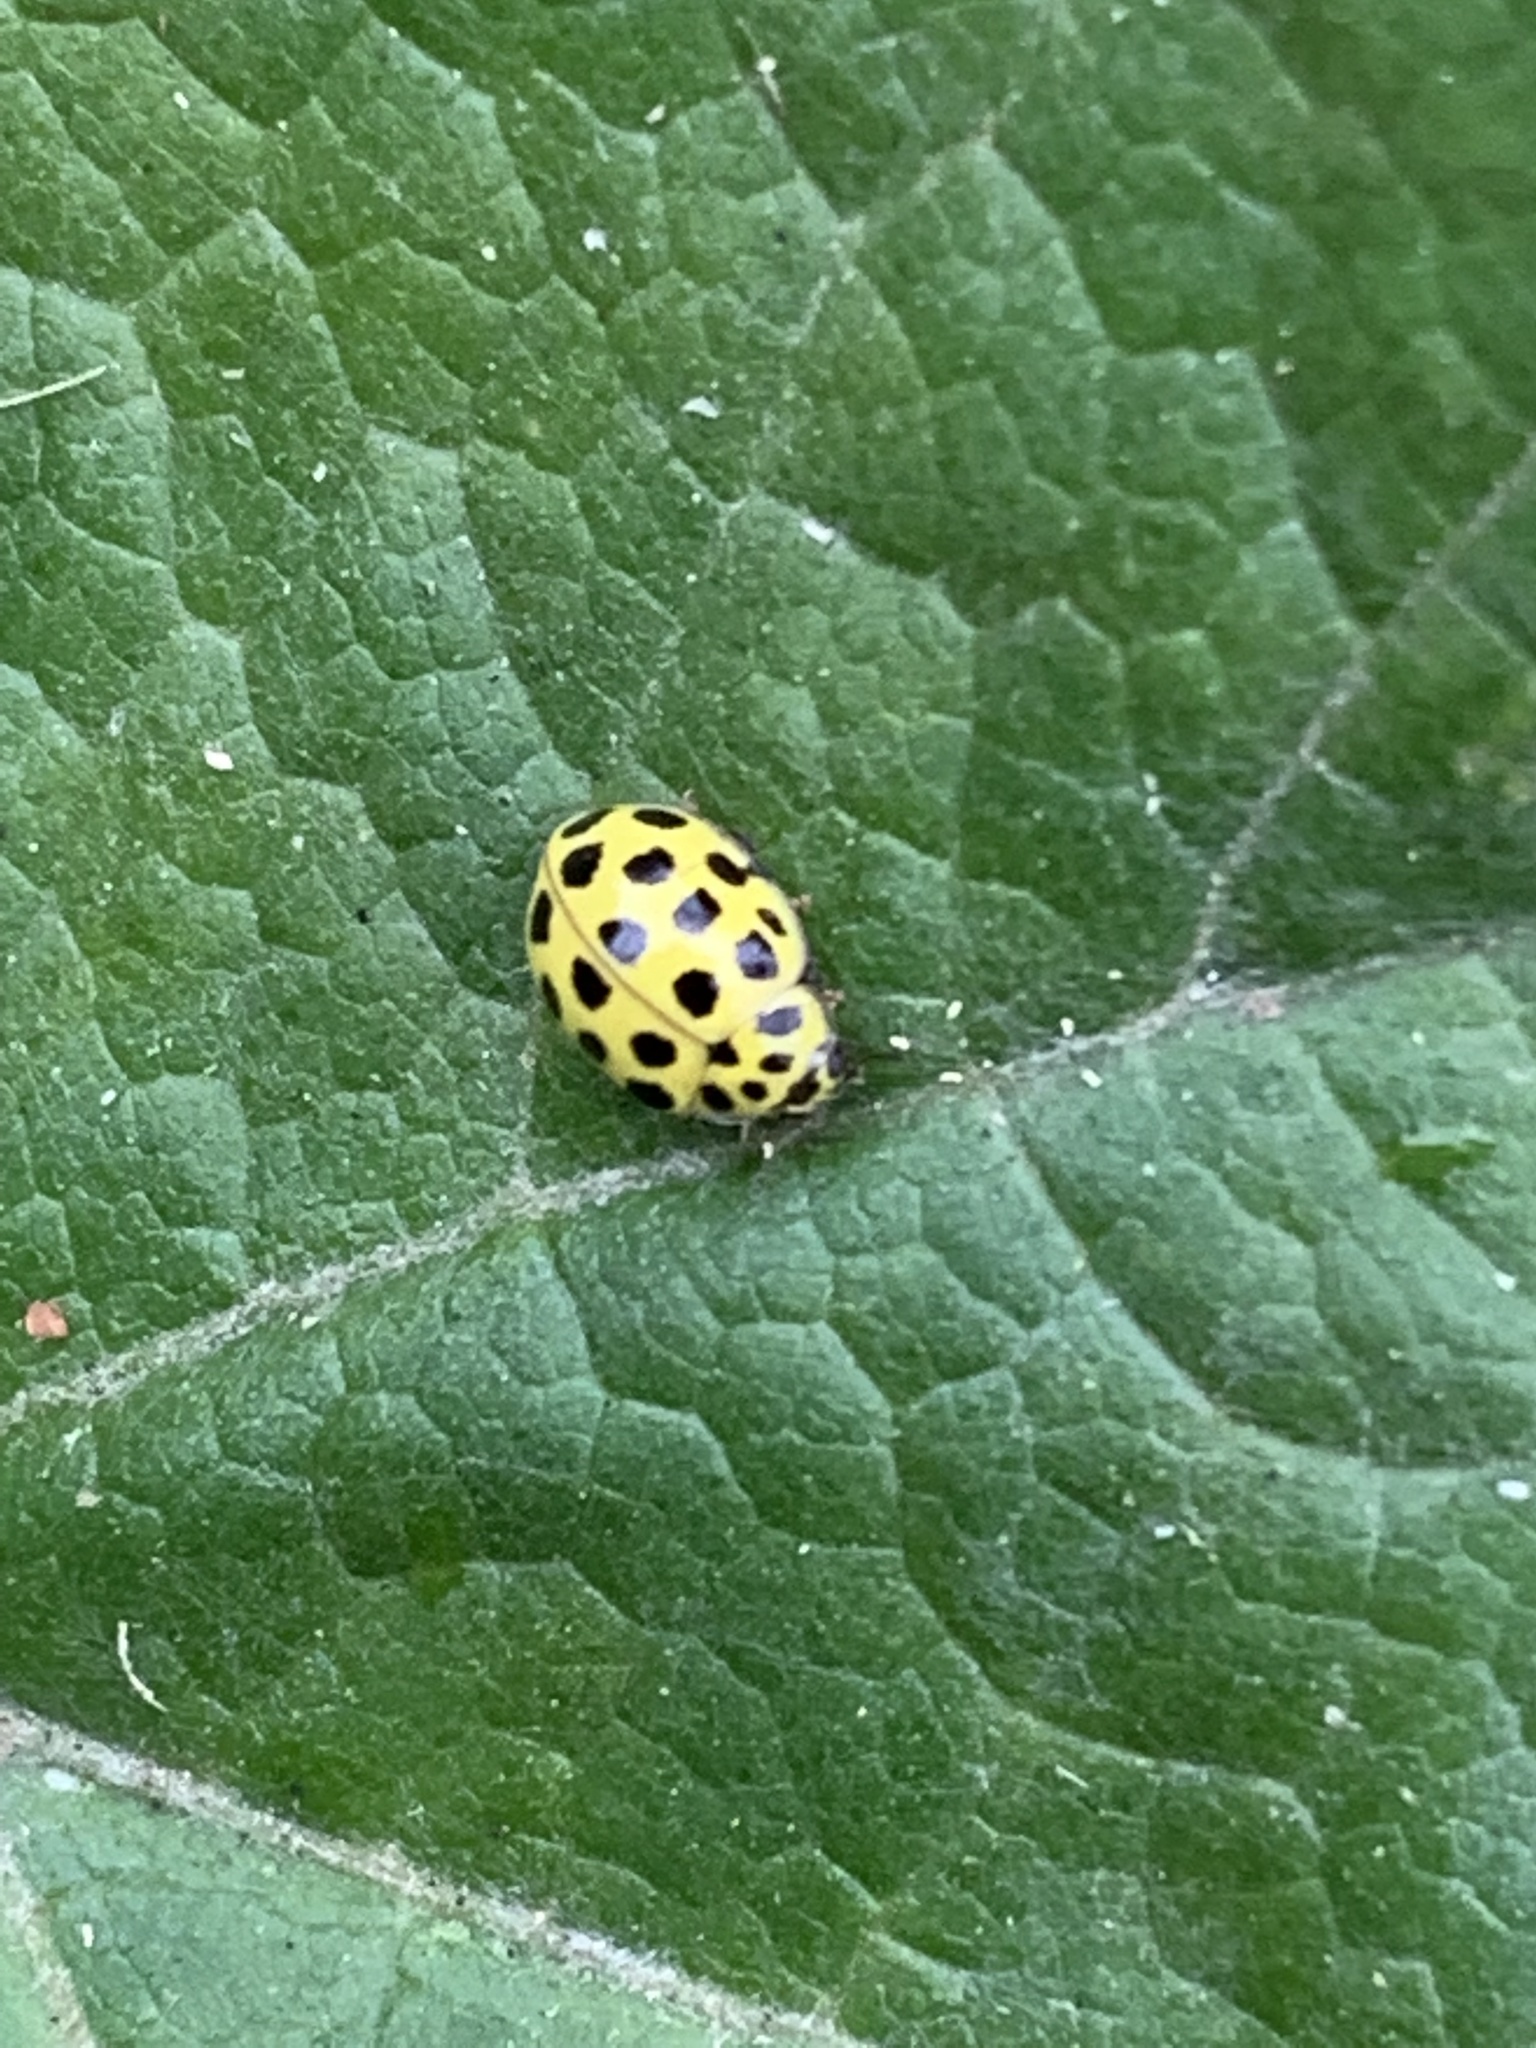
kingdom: Animalia
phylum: Arthropoda
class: Insecta
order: Coleoptera
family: Coccinellidae
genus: Psyllobora
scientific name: Psyllobora vigintiduopunctata
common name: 22-spot ladybird
